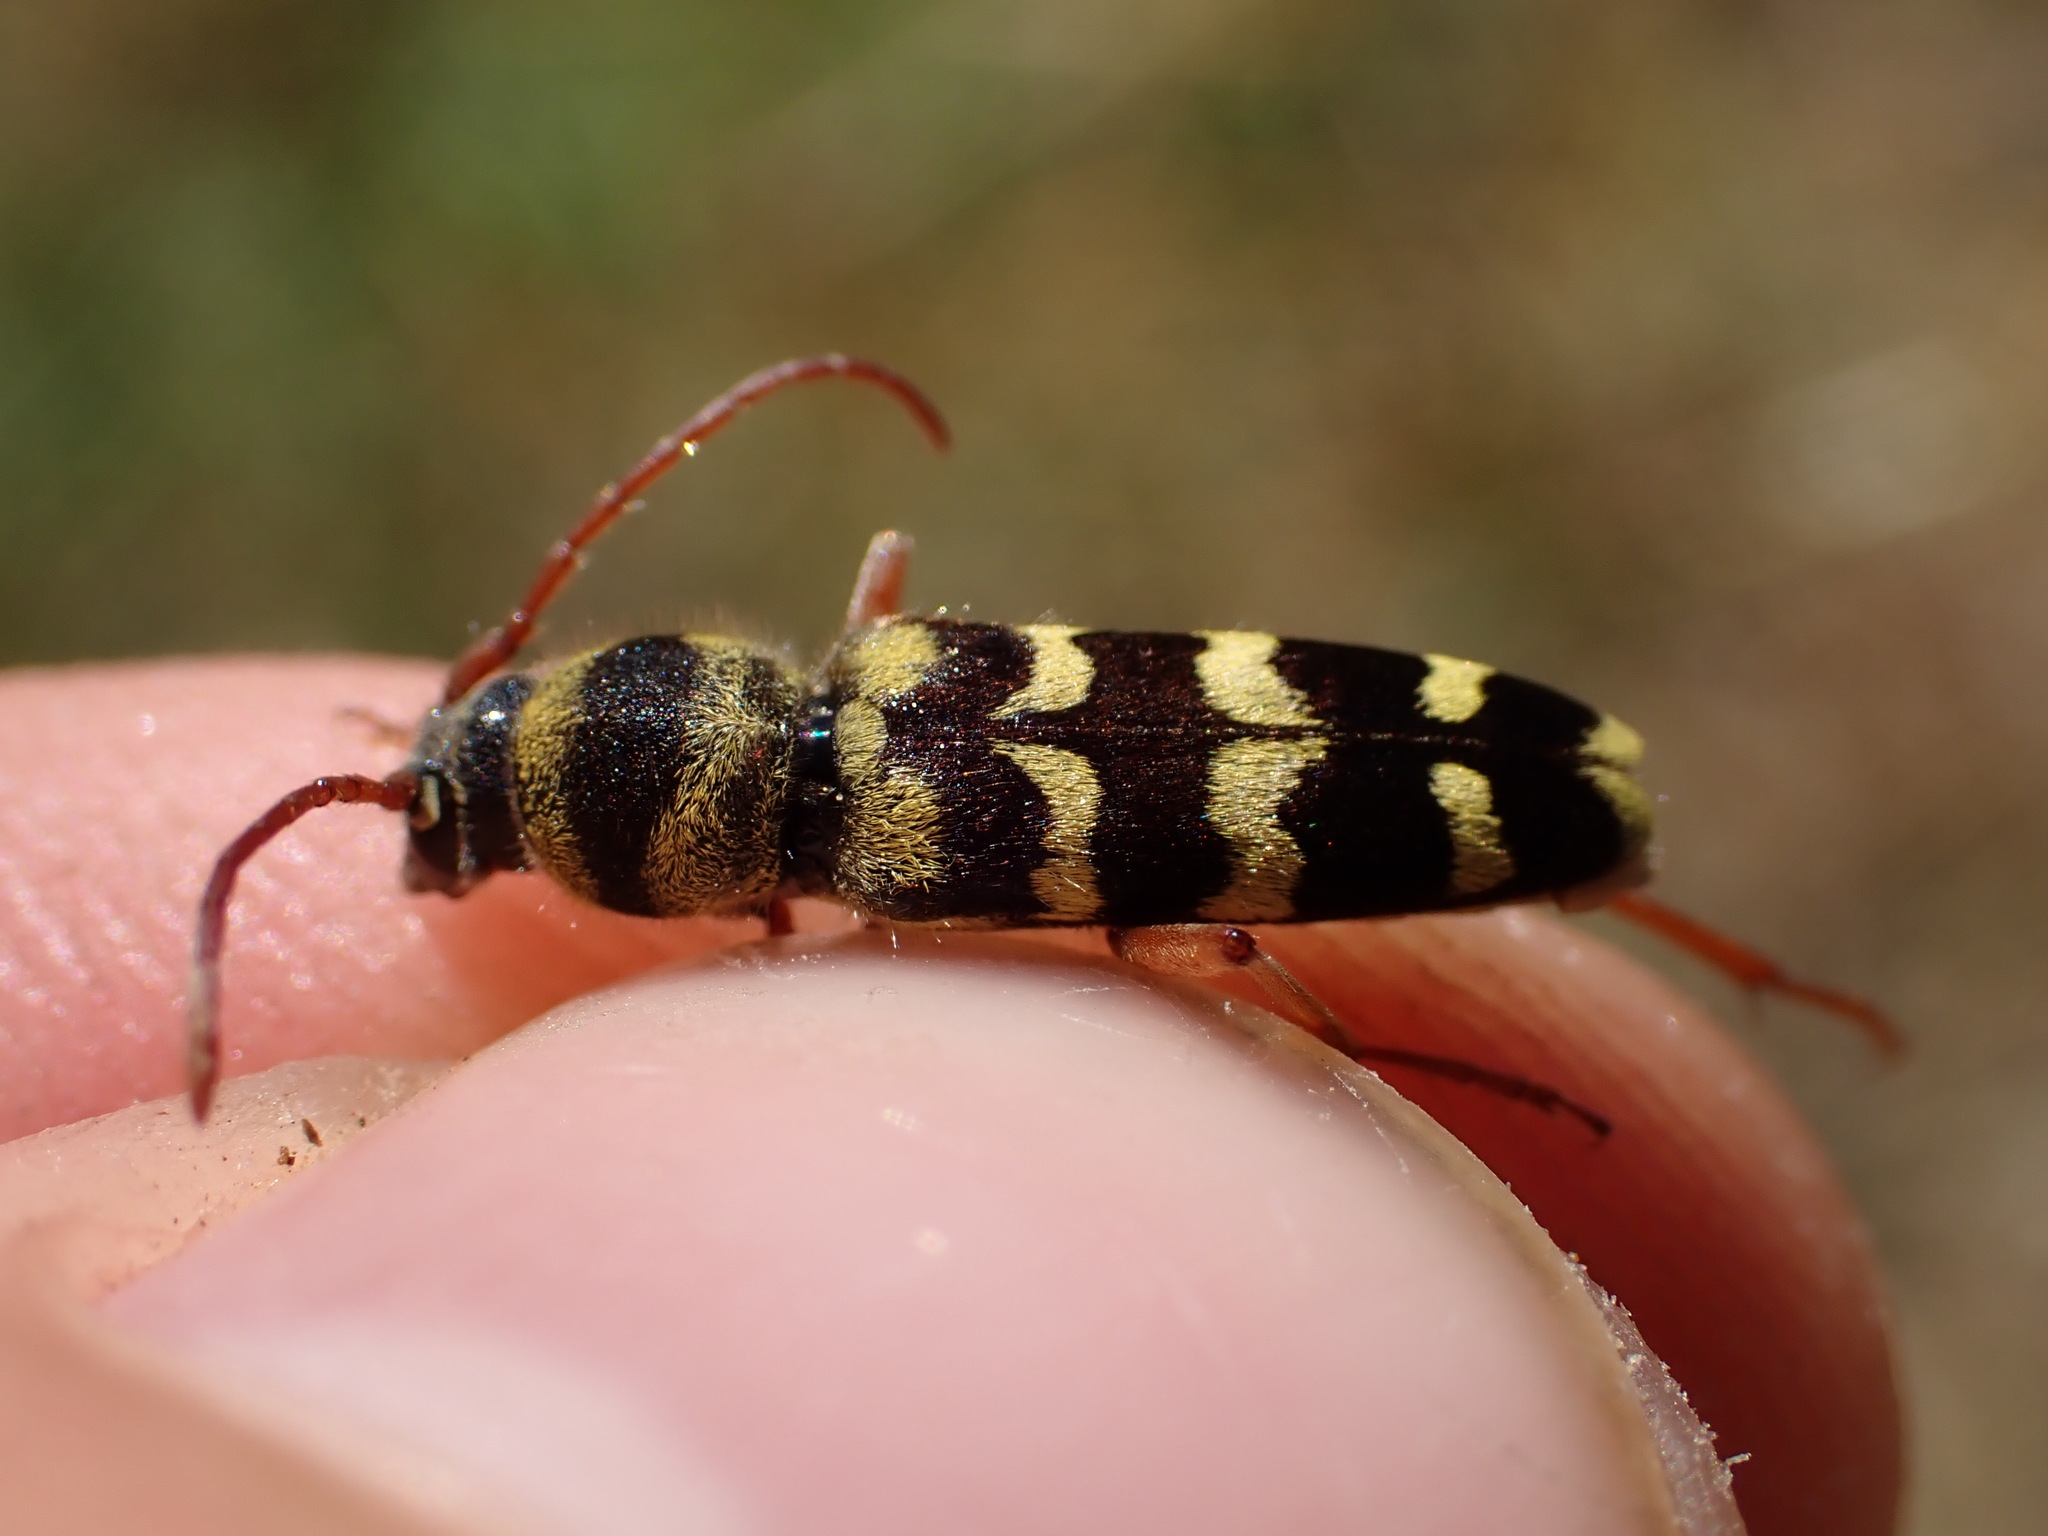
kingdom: Animalia
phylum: Arthropoda
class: Insecta
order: Coleoptera
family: Cerambycidae
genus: Plagionotus
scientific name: Plagionotus floralis
